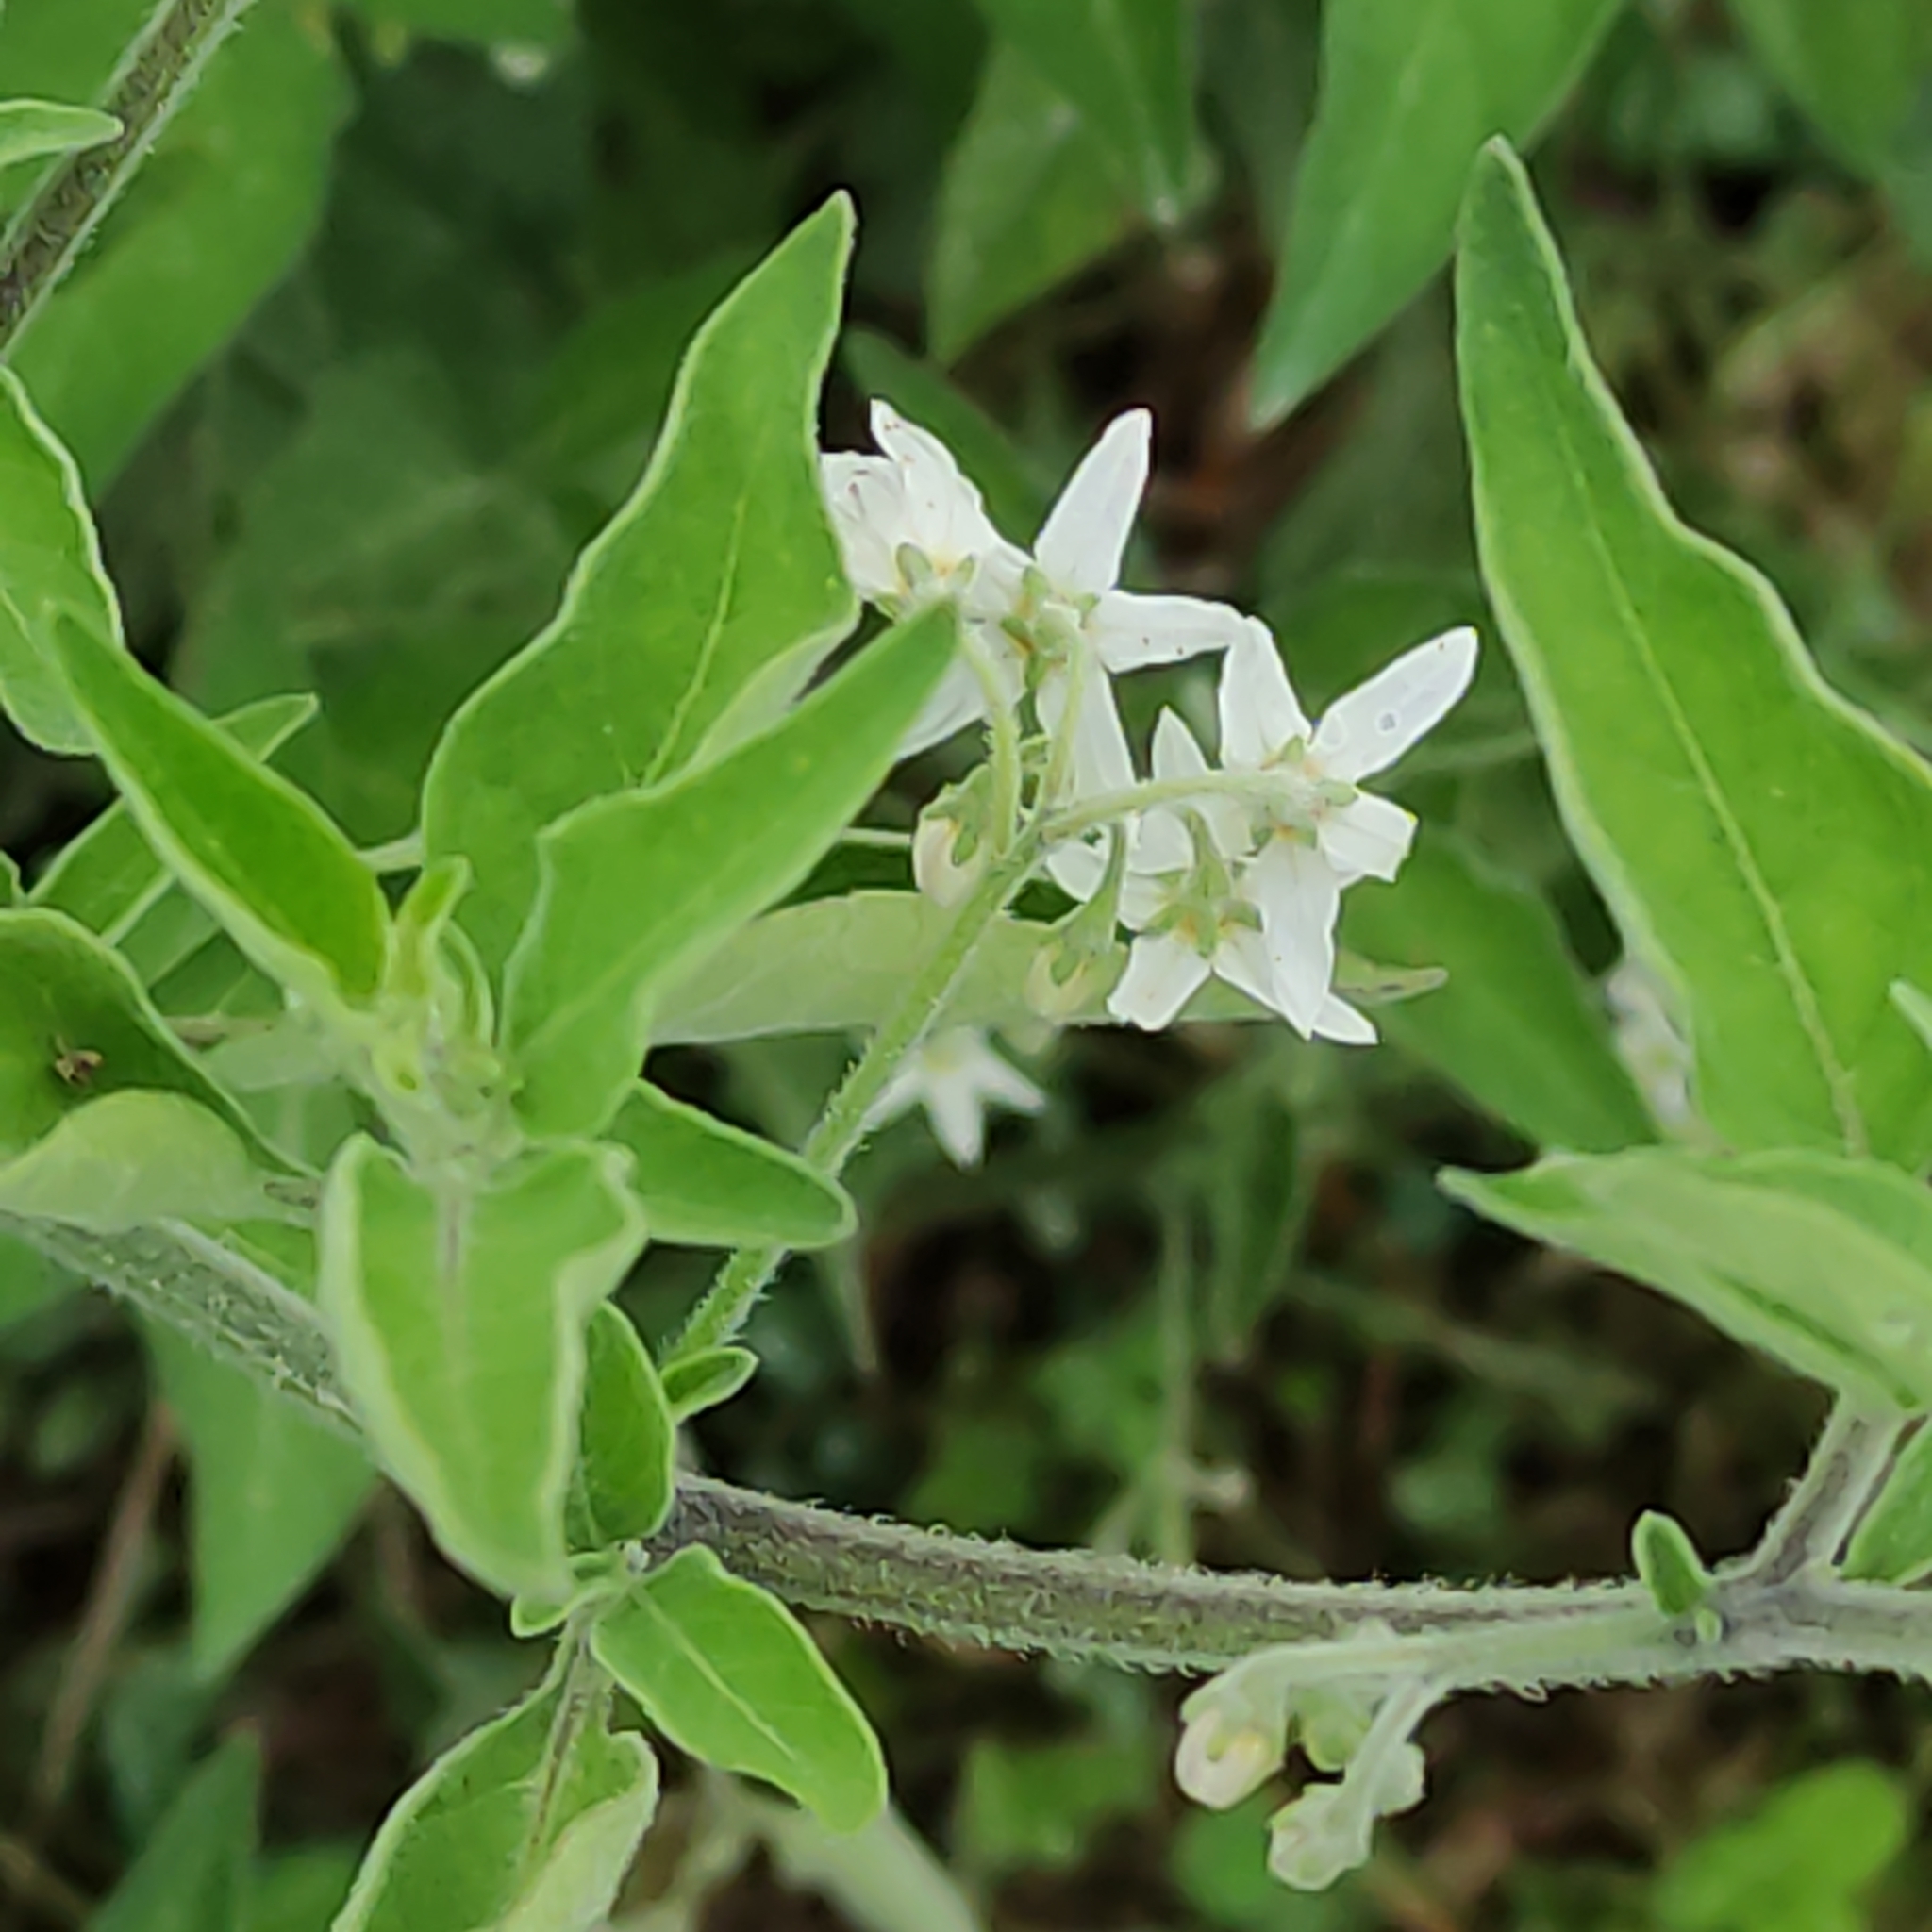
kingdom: Plantae
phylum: Tracheophyta
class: Magnoliopsida
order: Solanales
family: Solanaceae
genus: Solanum
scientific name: Solanum chenopodioides
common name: Tall nightshade
